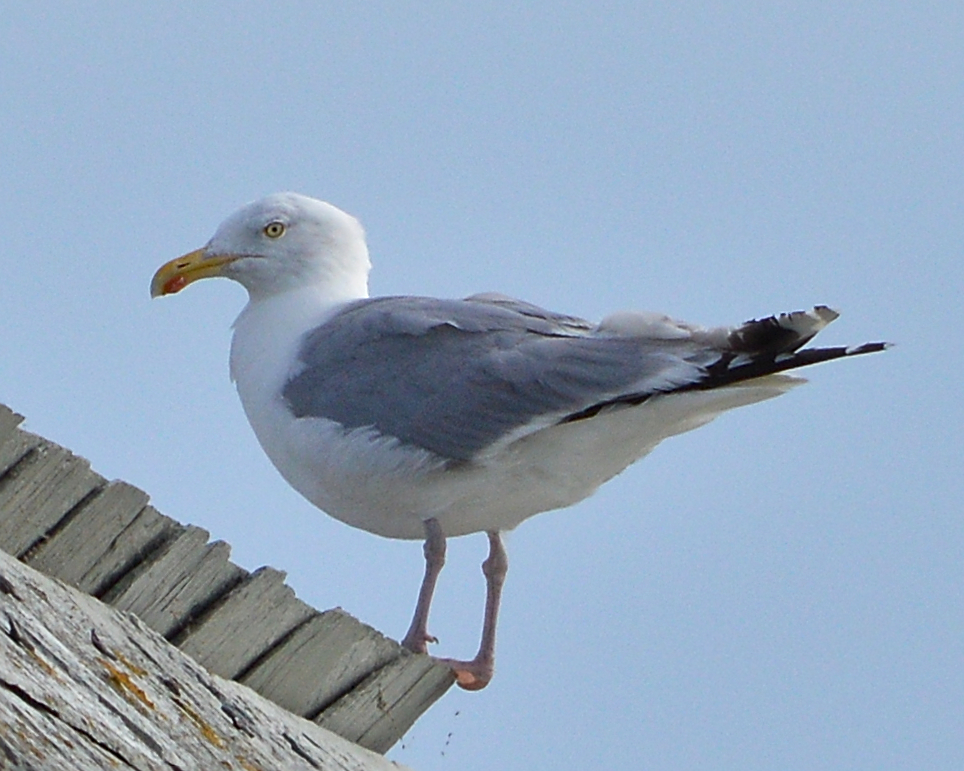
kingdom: Animalia
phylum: Chordata
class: Aves
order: Charadriiformes
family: Laridae
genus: Larus
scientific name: Larus argentatus
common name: Herring gull
